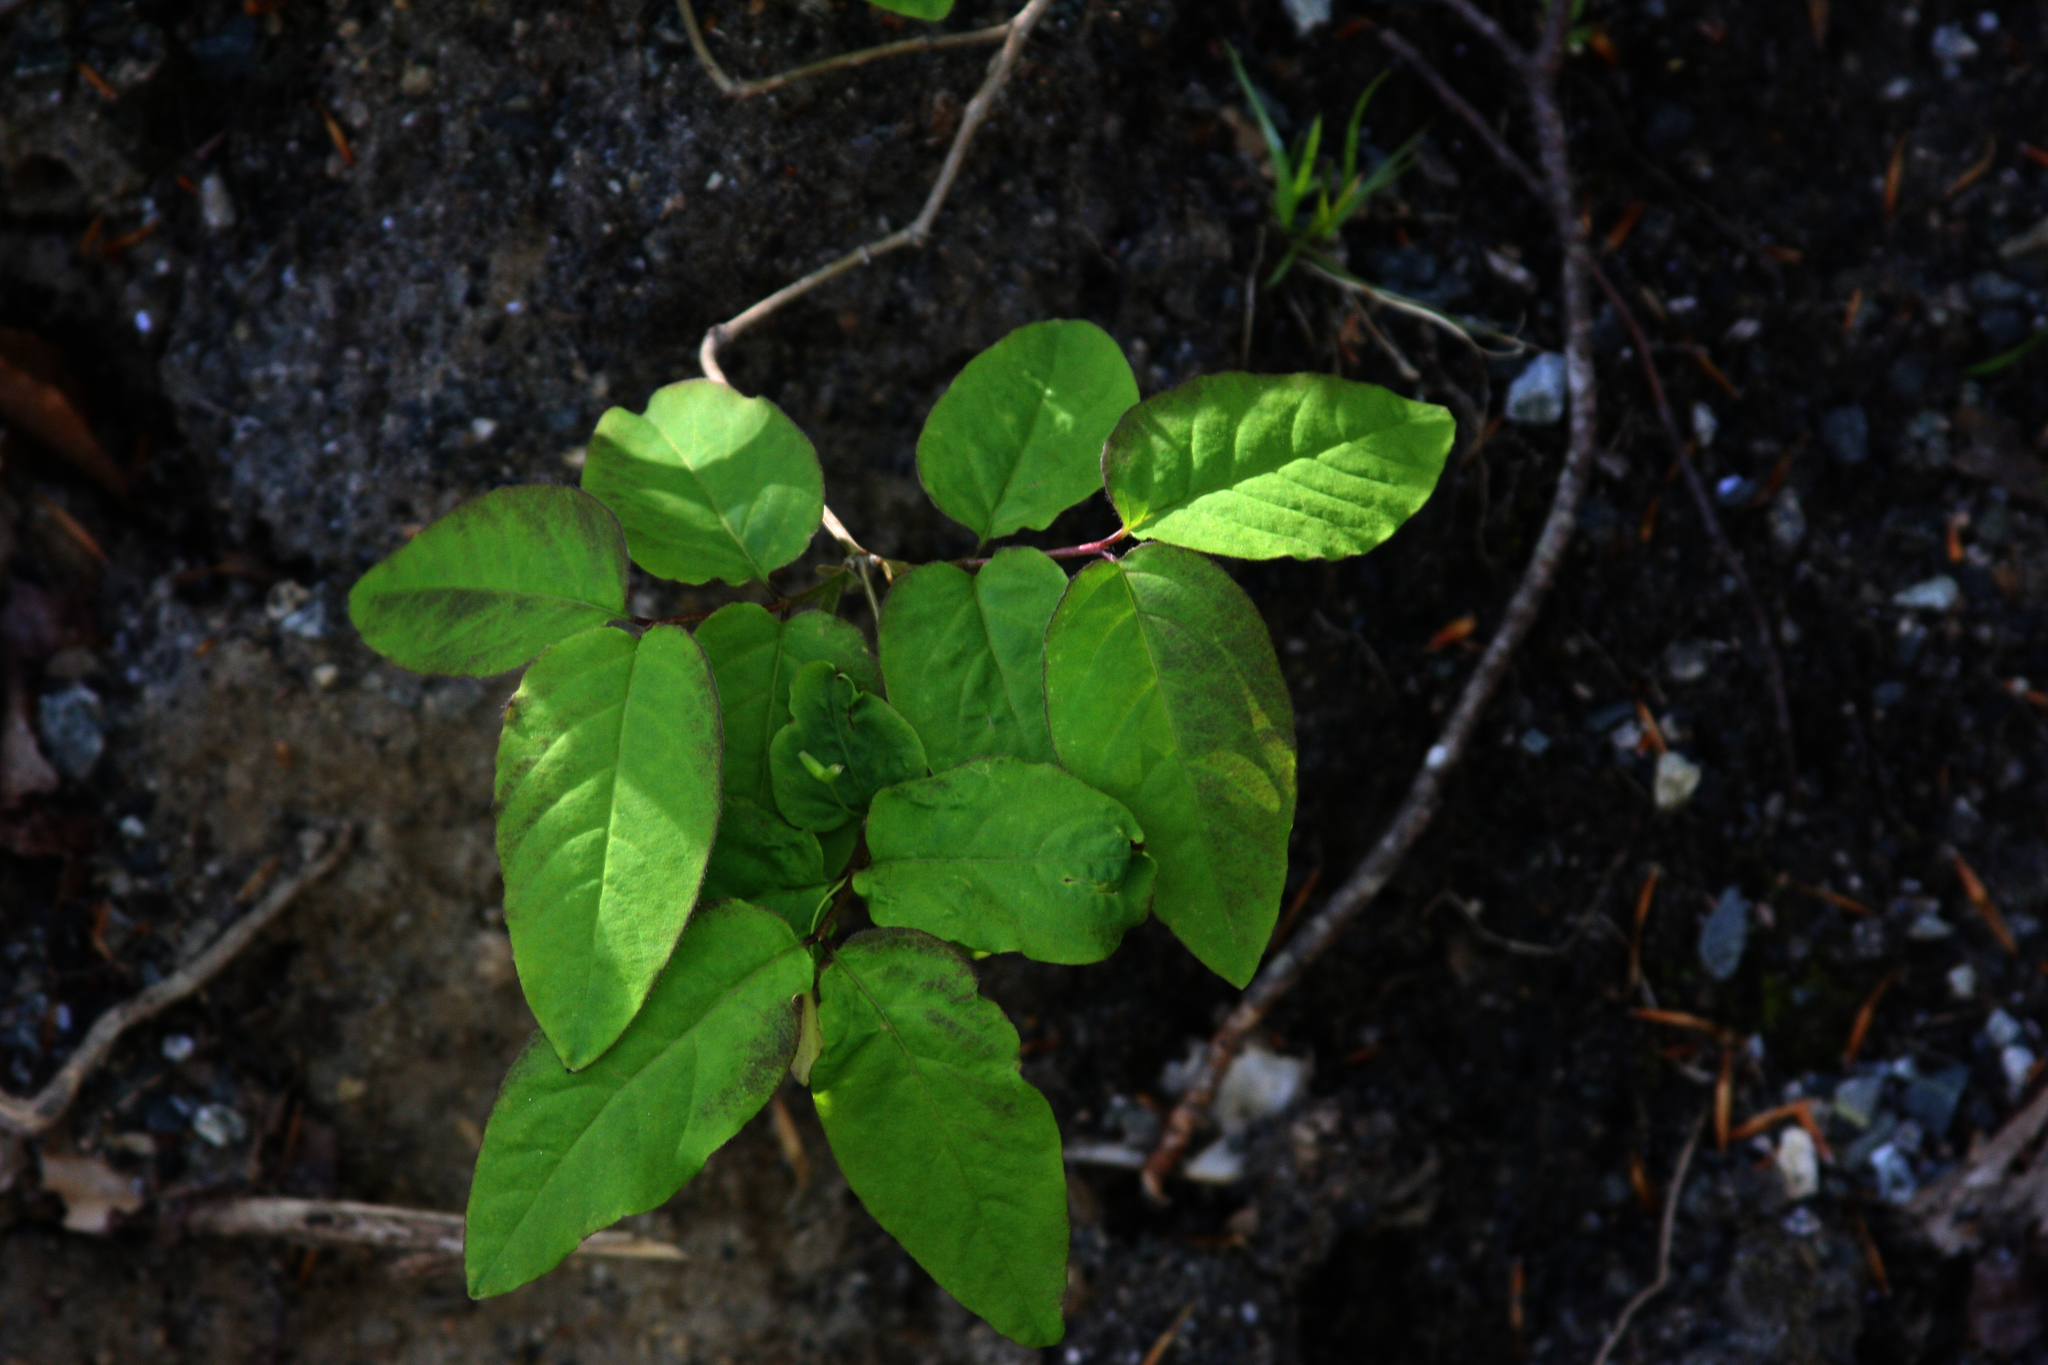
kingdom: Plantae
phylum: Tracheophyta
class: Magnoliopsida
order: Dipsacales
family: Caprifoliaceae
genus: Lonicera
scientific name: Lonicera canadensis
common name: American fly-honeysuckle
